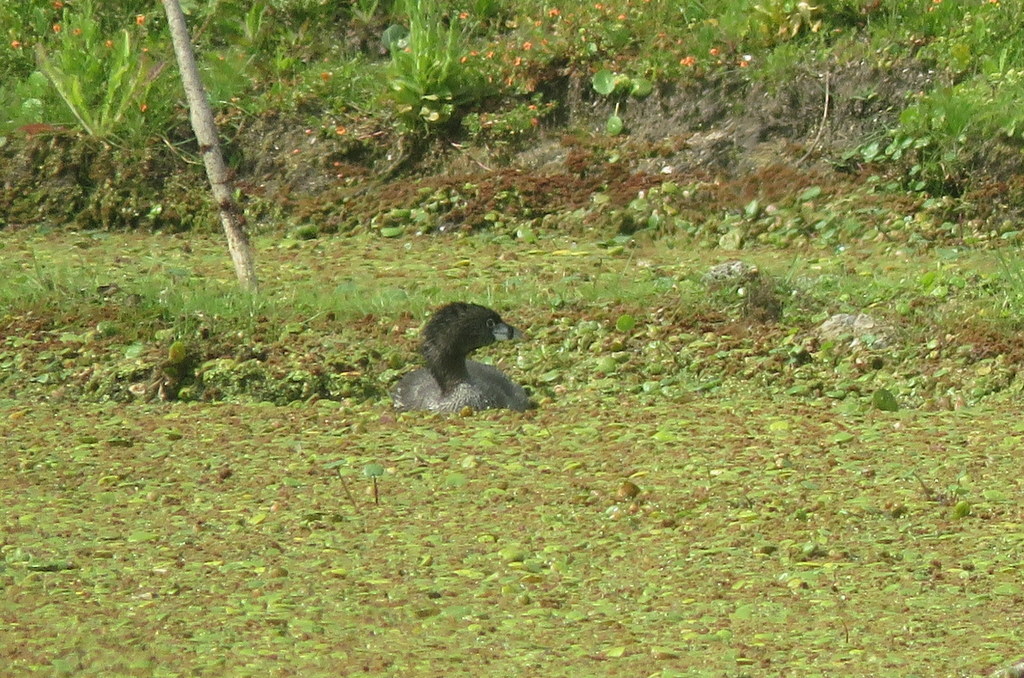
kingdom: Animalia
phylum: Chordata
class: Aves
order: Podicipediformes
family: Podicipedidae
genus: Podilymbus
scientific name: Podilymbus podiceps
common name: Pied-billed grebe
